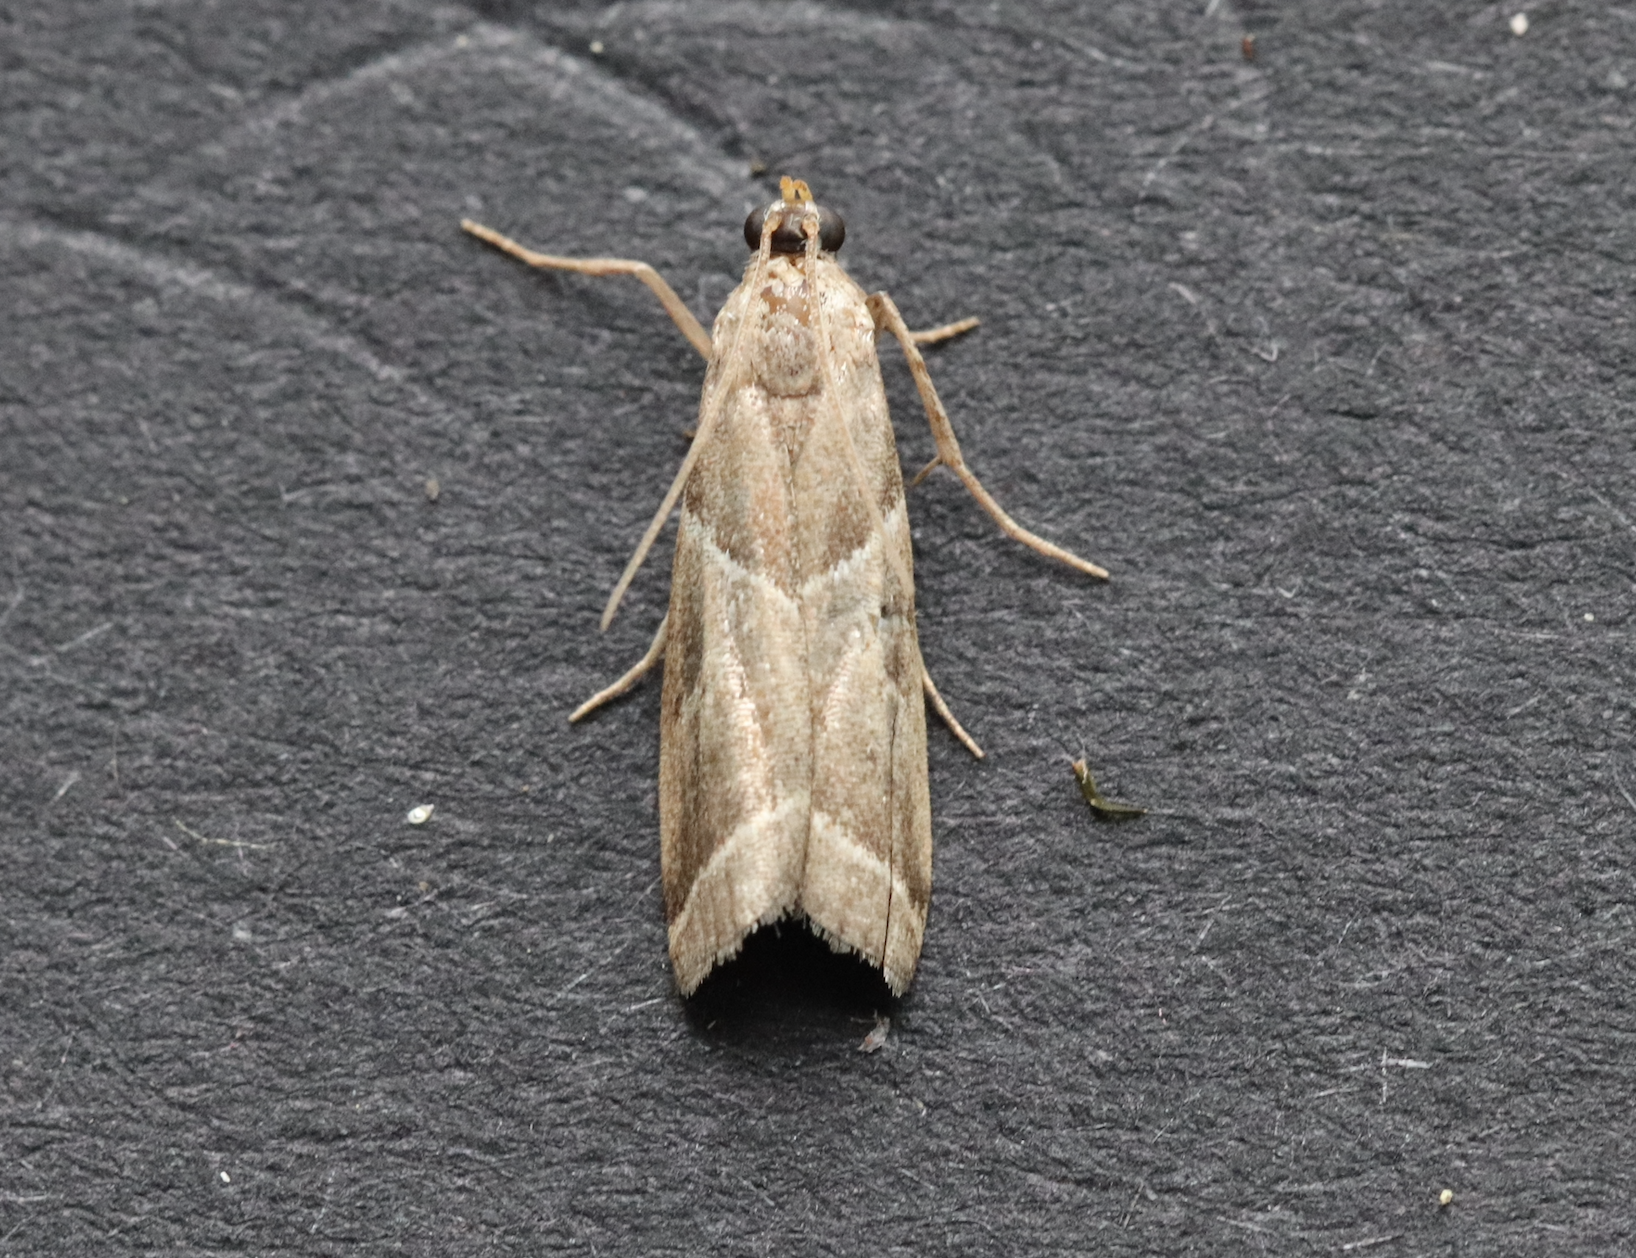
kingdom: Animalia
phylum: Arthropoda
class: Insecta
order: Lepidoptera
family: Pyralidae
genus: Nyctegretis
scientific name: Nyctegretis lineana
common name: Agate knot-horn
